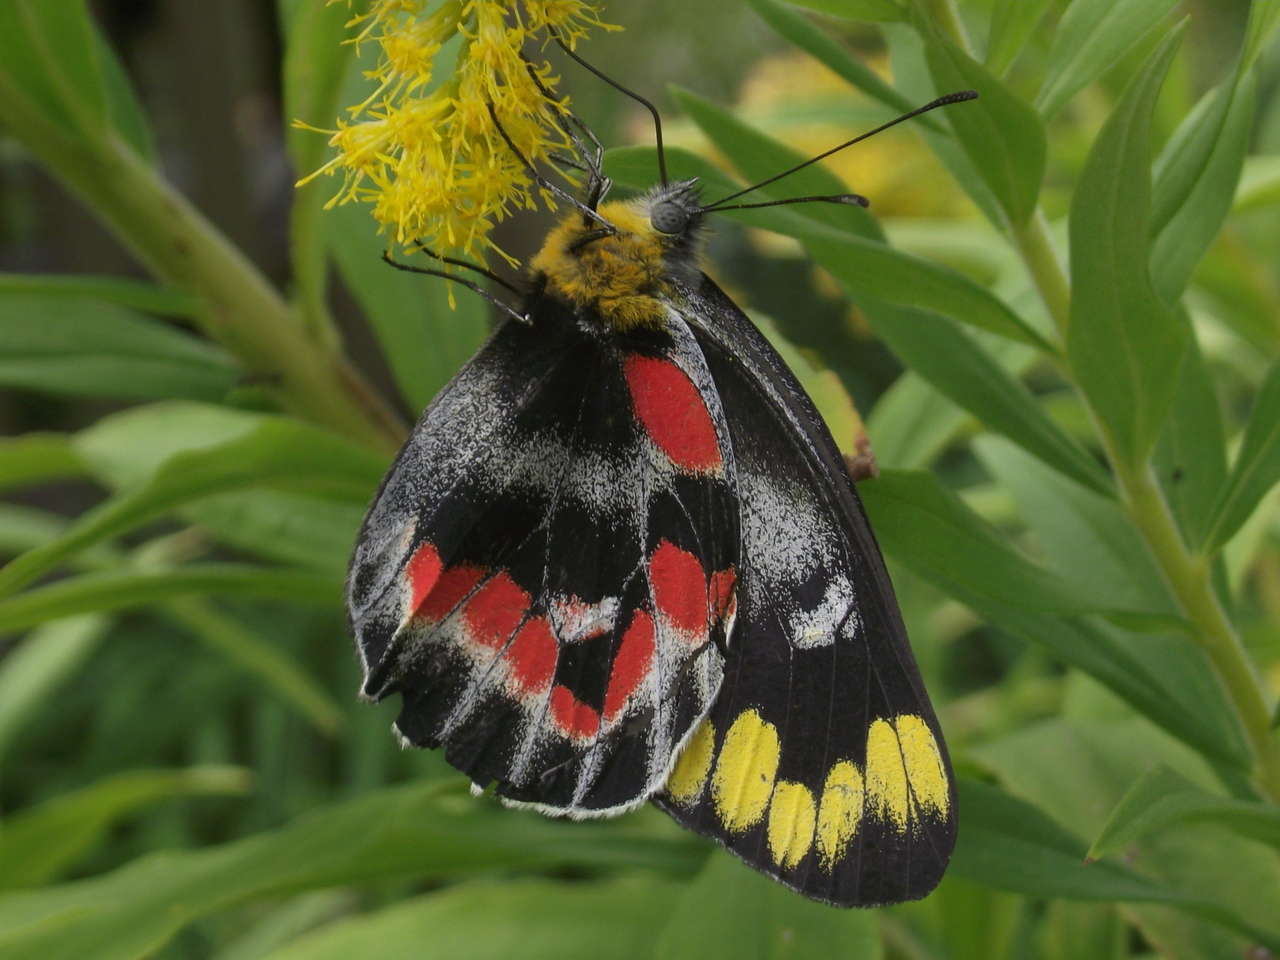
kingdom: Animalia
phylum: Arthropoda
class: Insecta
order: Lepidoptera
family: Pieridae
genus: Delias
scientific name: Delias harpalyce
